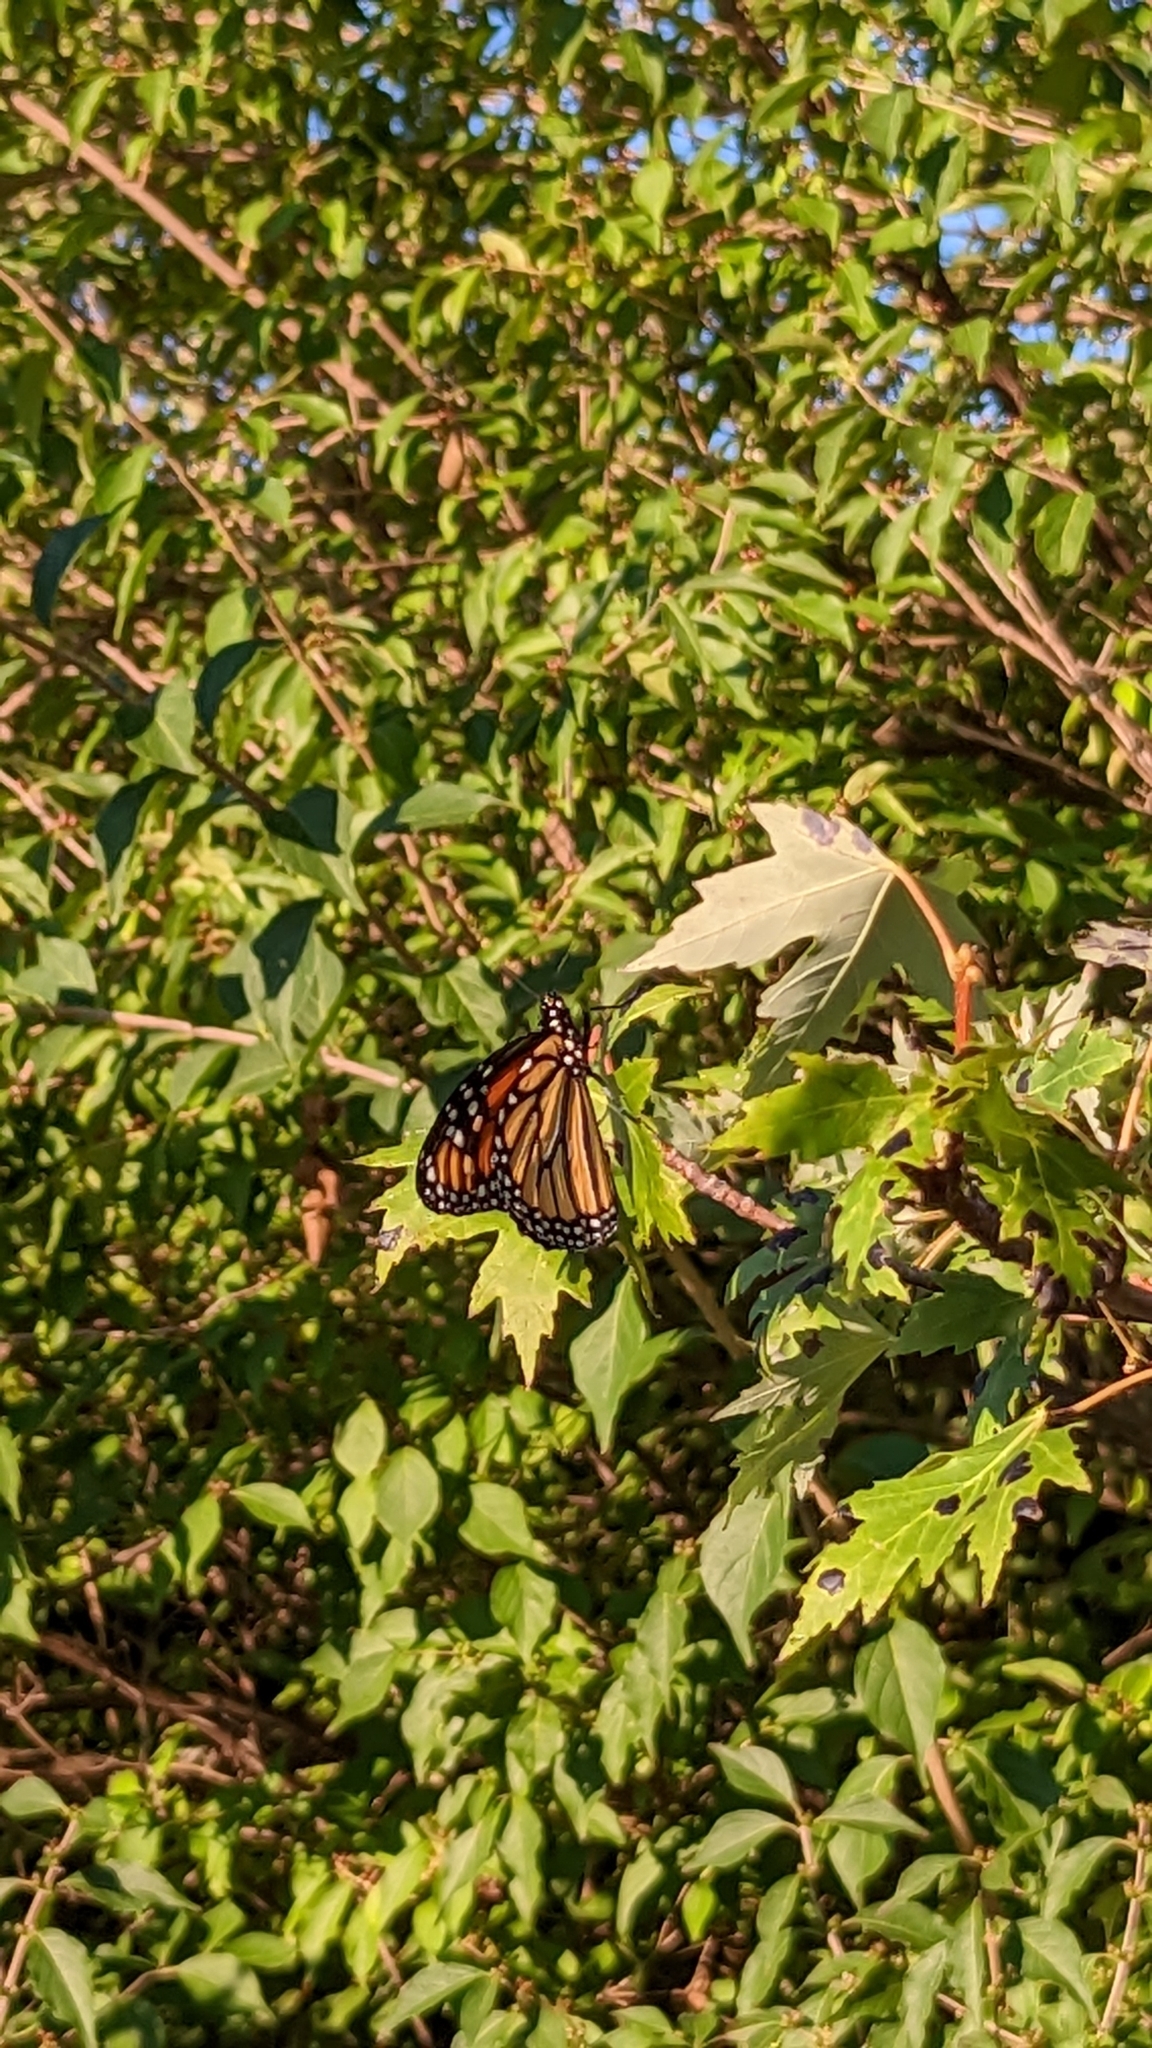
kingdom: Animalia
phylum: Arthropoda
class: Insecta
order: Lepidoptera
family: Nymphalidae
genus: Danaus
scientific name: Danaus plexippus
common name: Monarch
